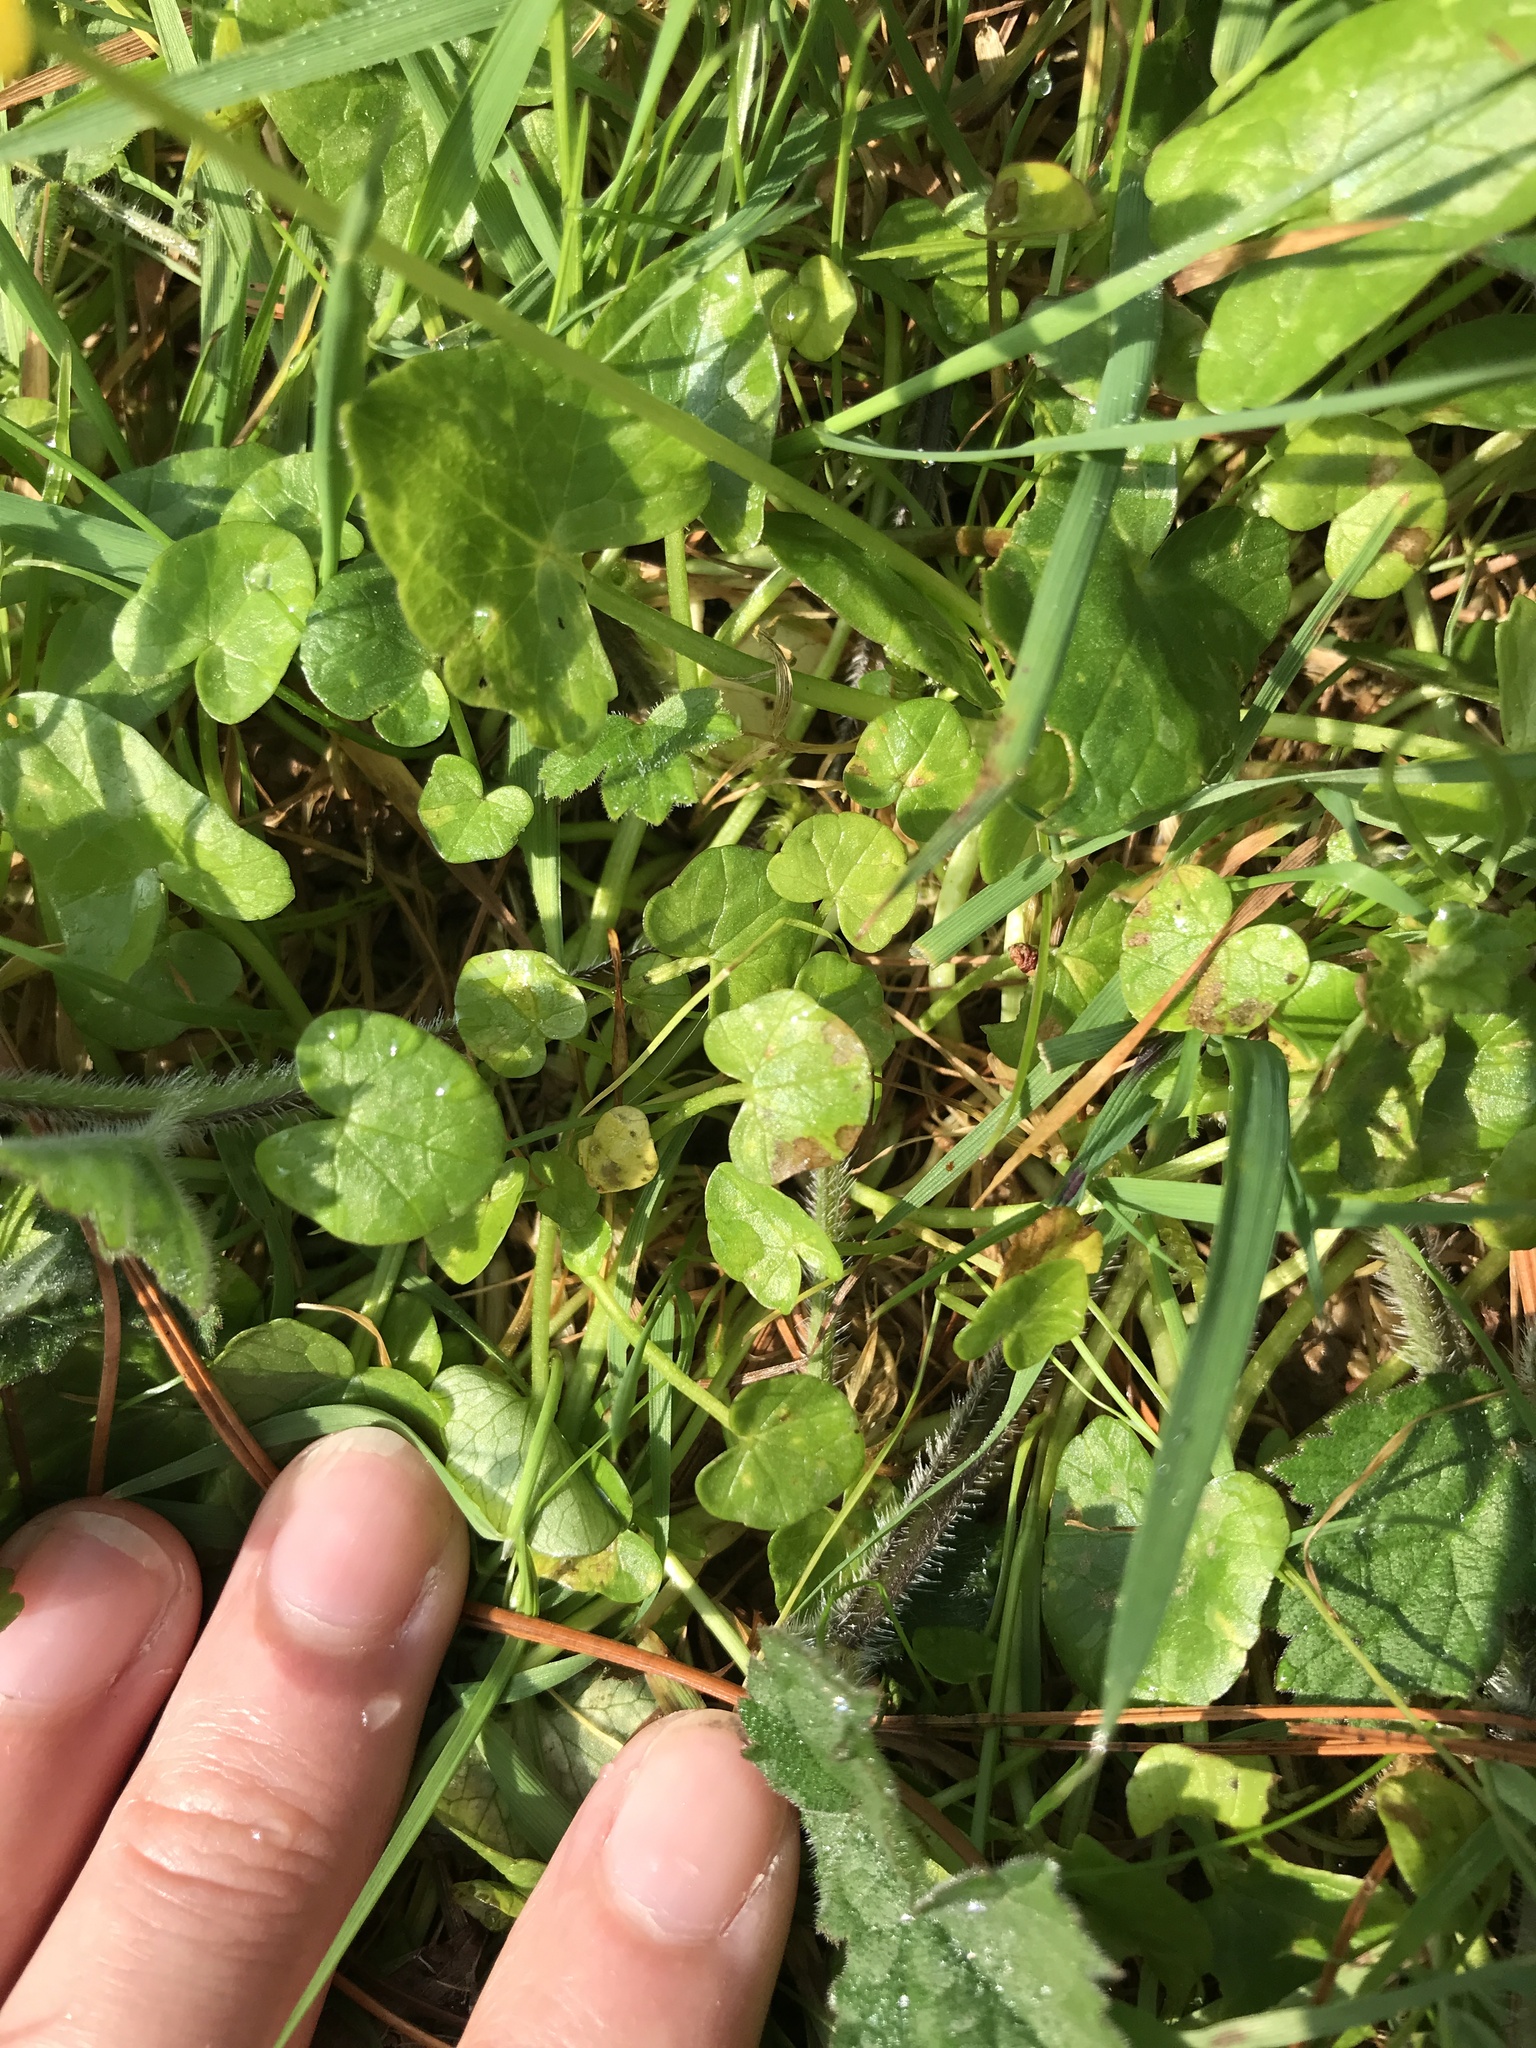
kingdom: Plantae
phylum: Tracheophyta
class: Magnoliopsida
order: Ranunculales
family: Ranunculaceae
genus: Ficaria
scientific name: Ficaria verna
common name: Lesser celandine
